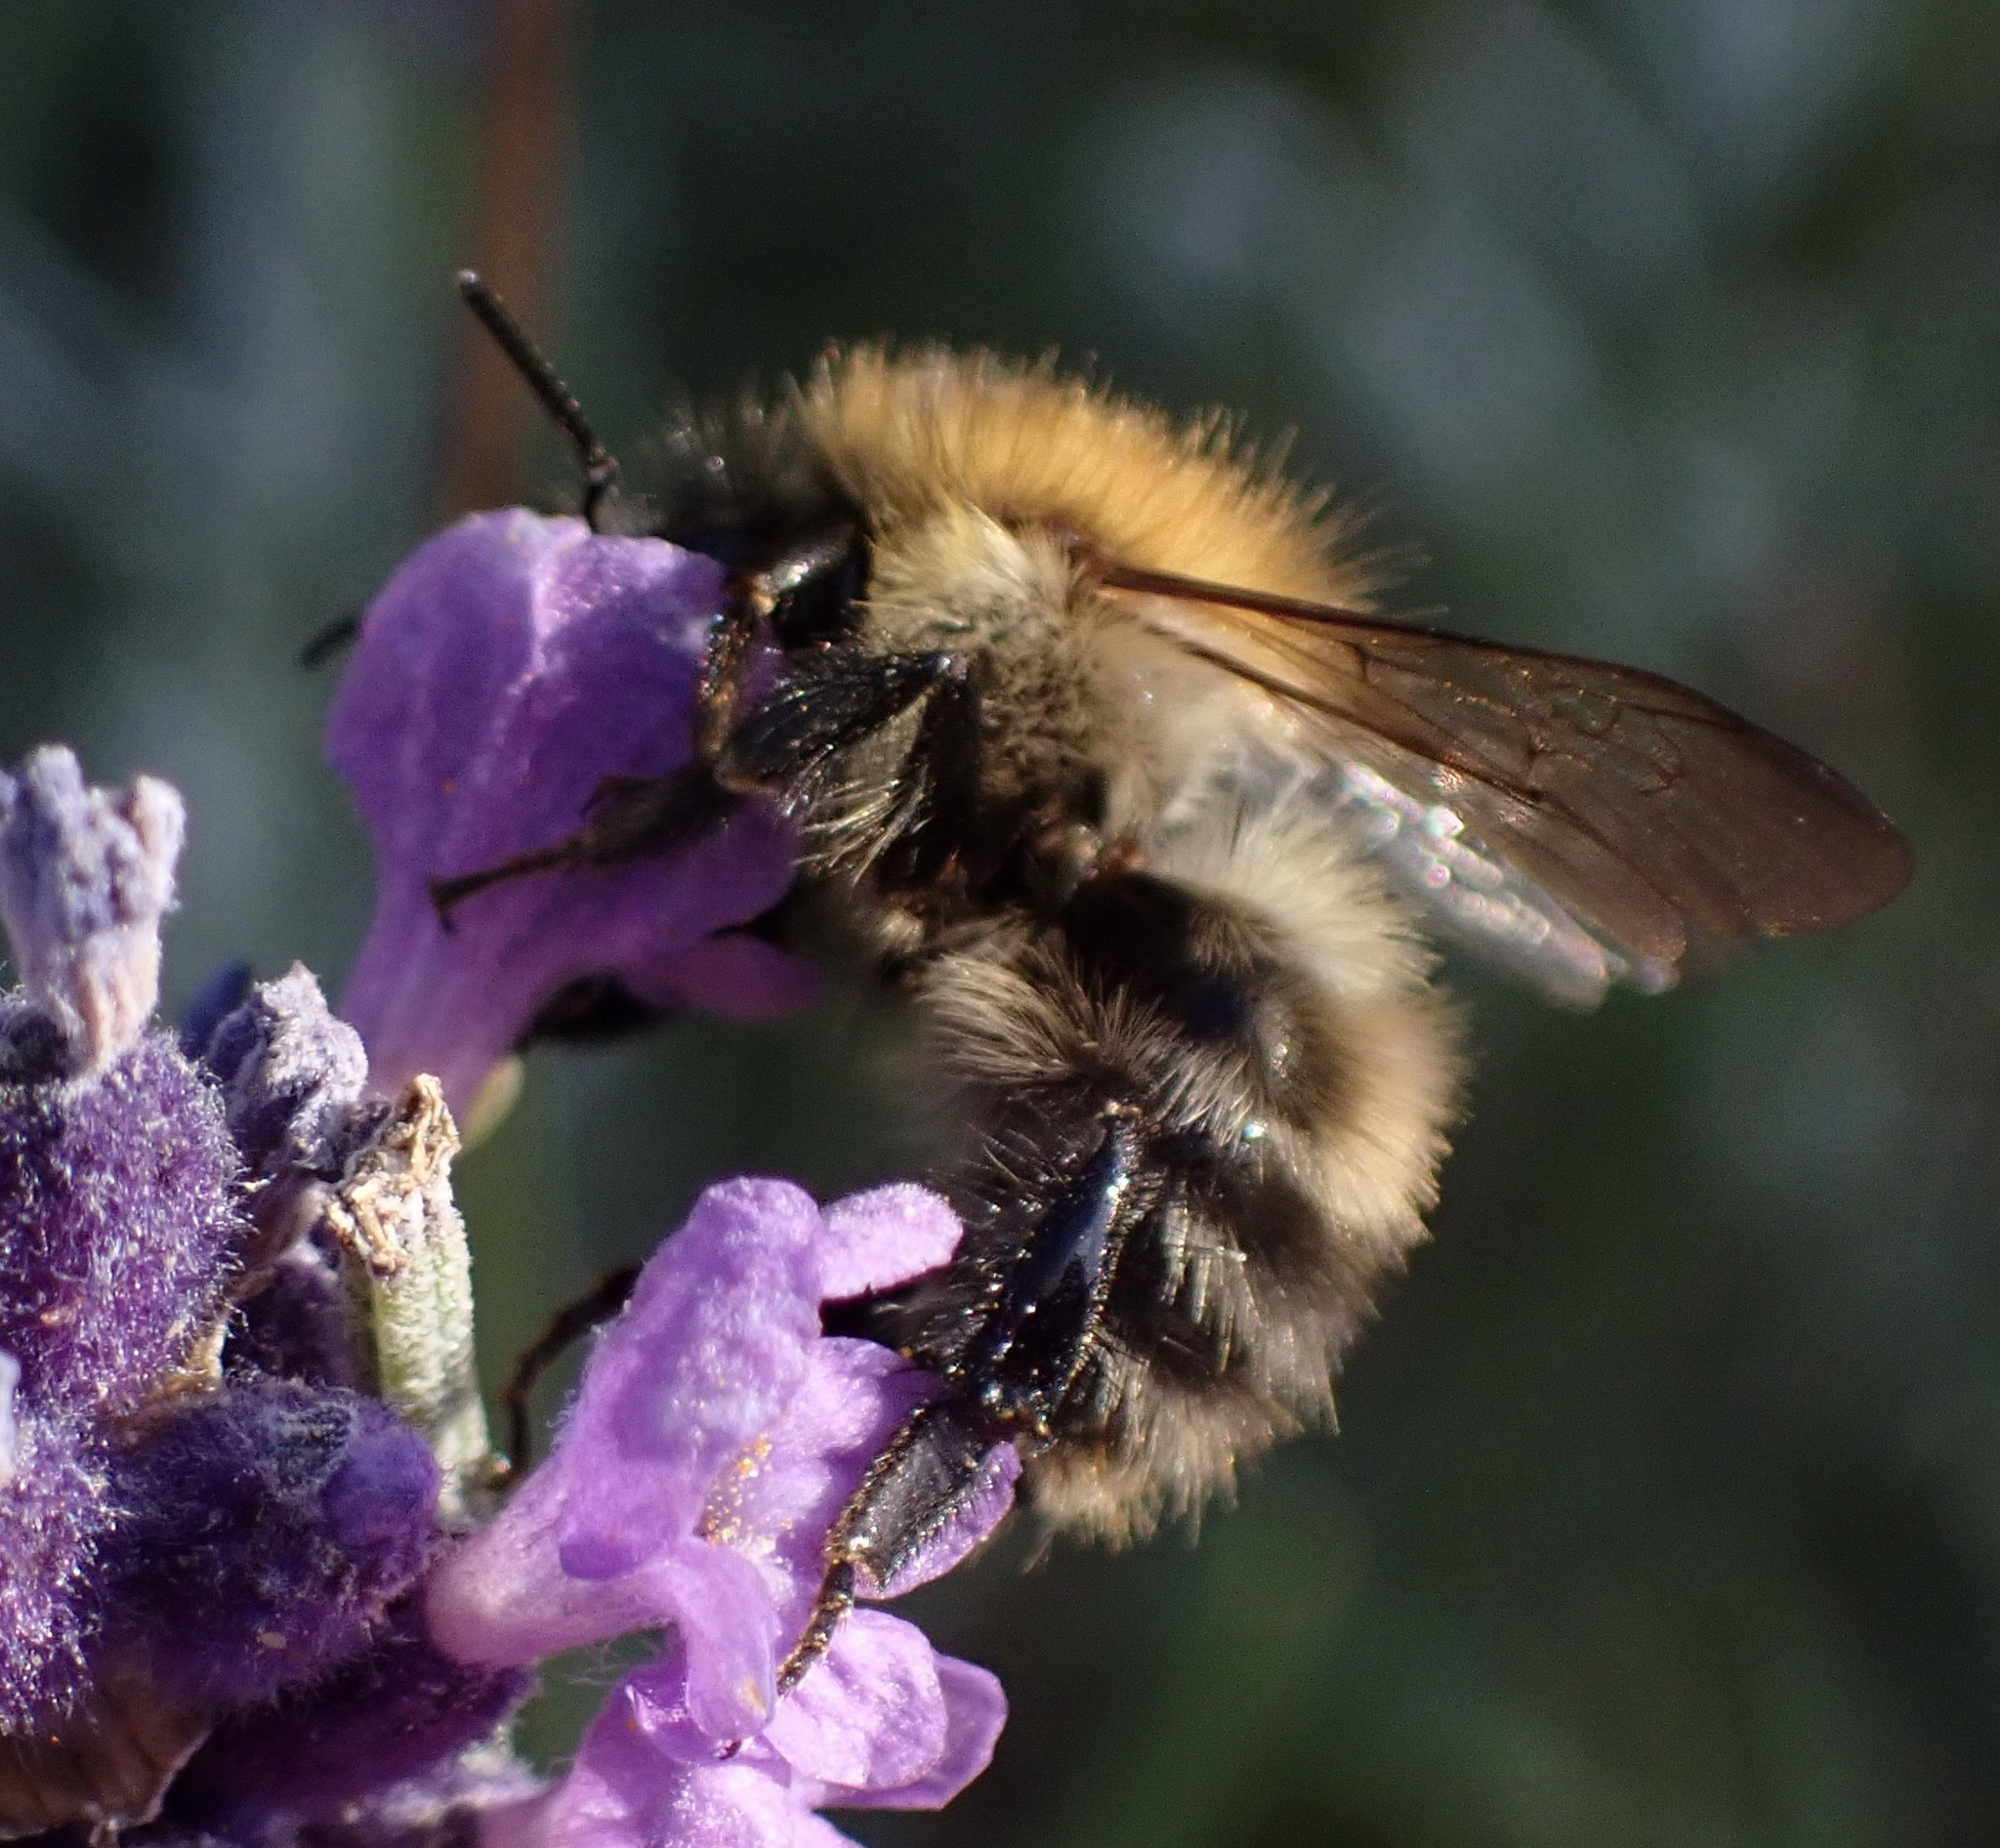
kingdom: Animalia
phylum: Arthropoda
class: Insecta
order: Hymenoptera
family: Apidae
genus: Bombus
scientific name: Bombus pascuorum
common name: Common carder bee
